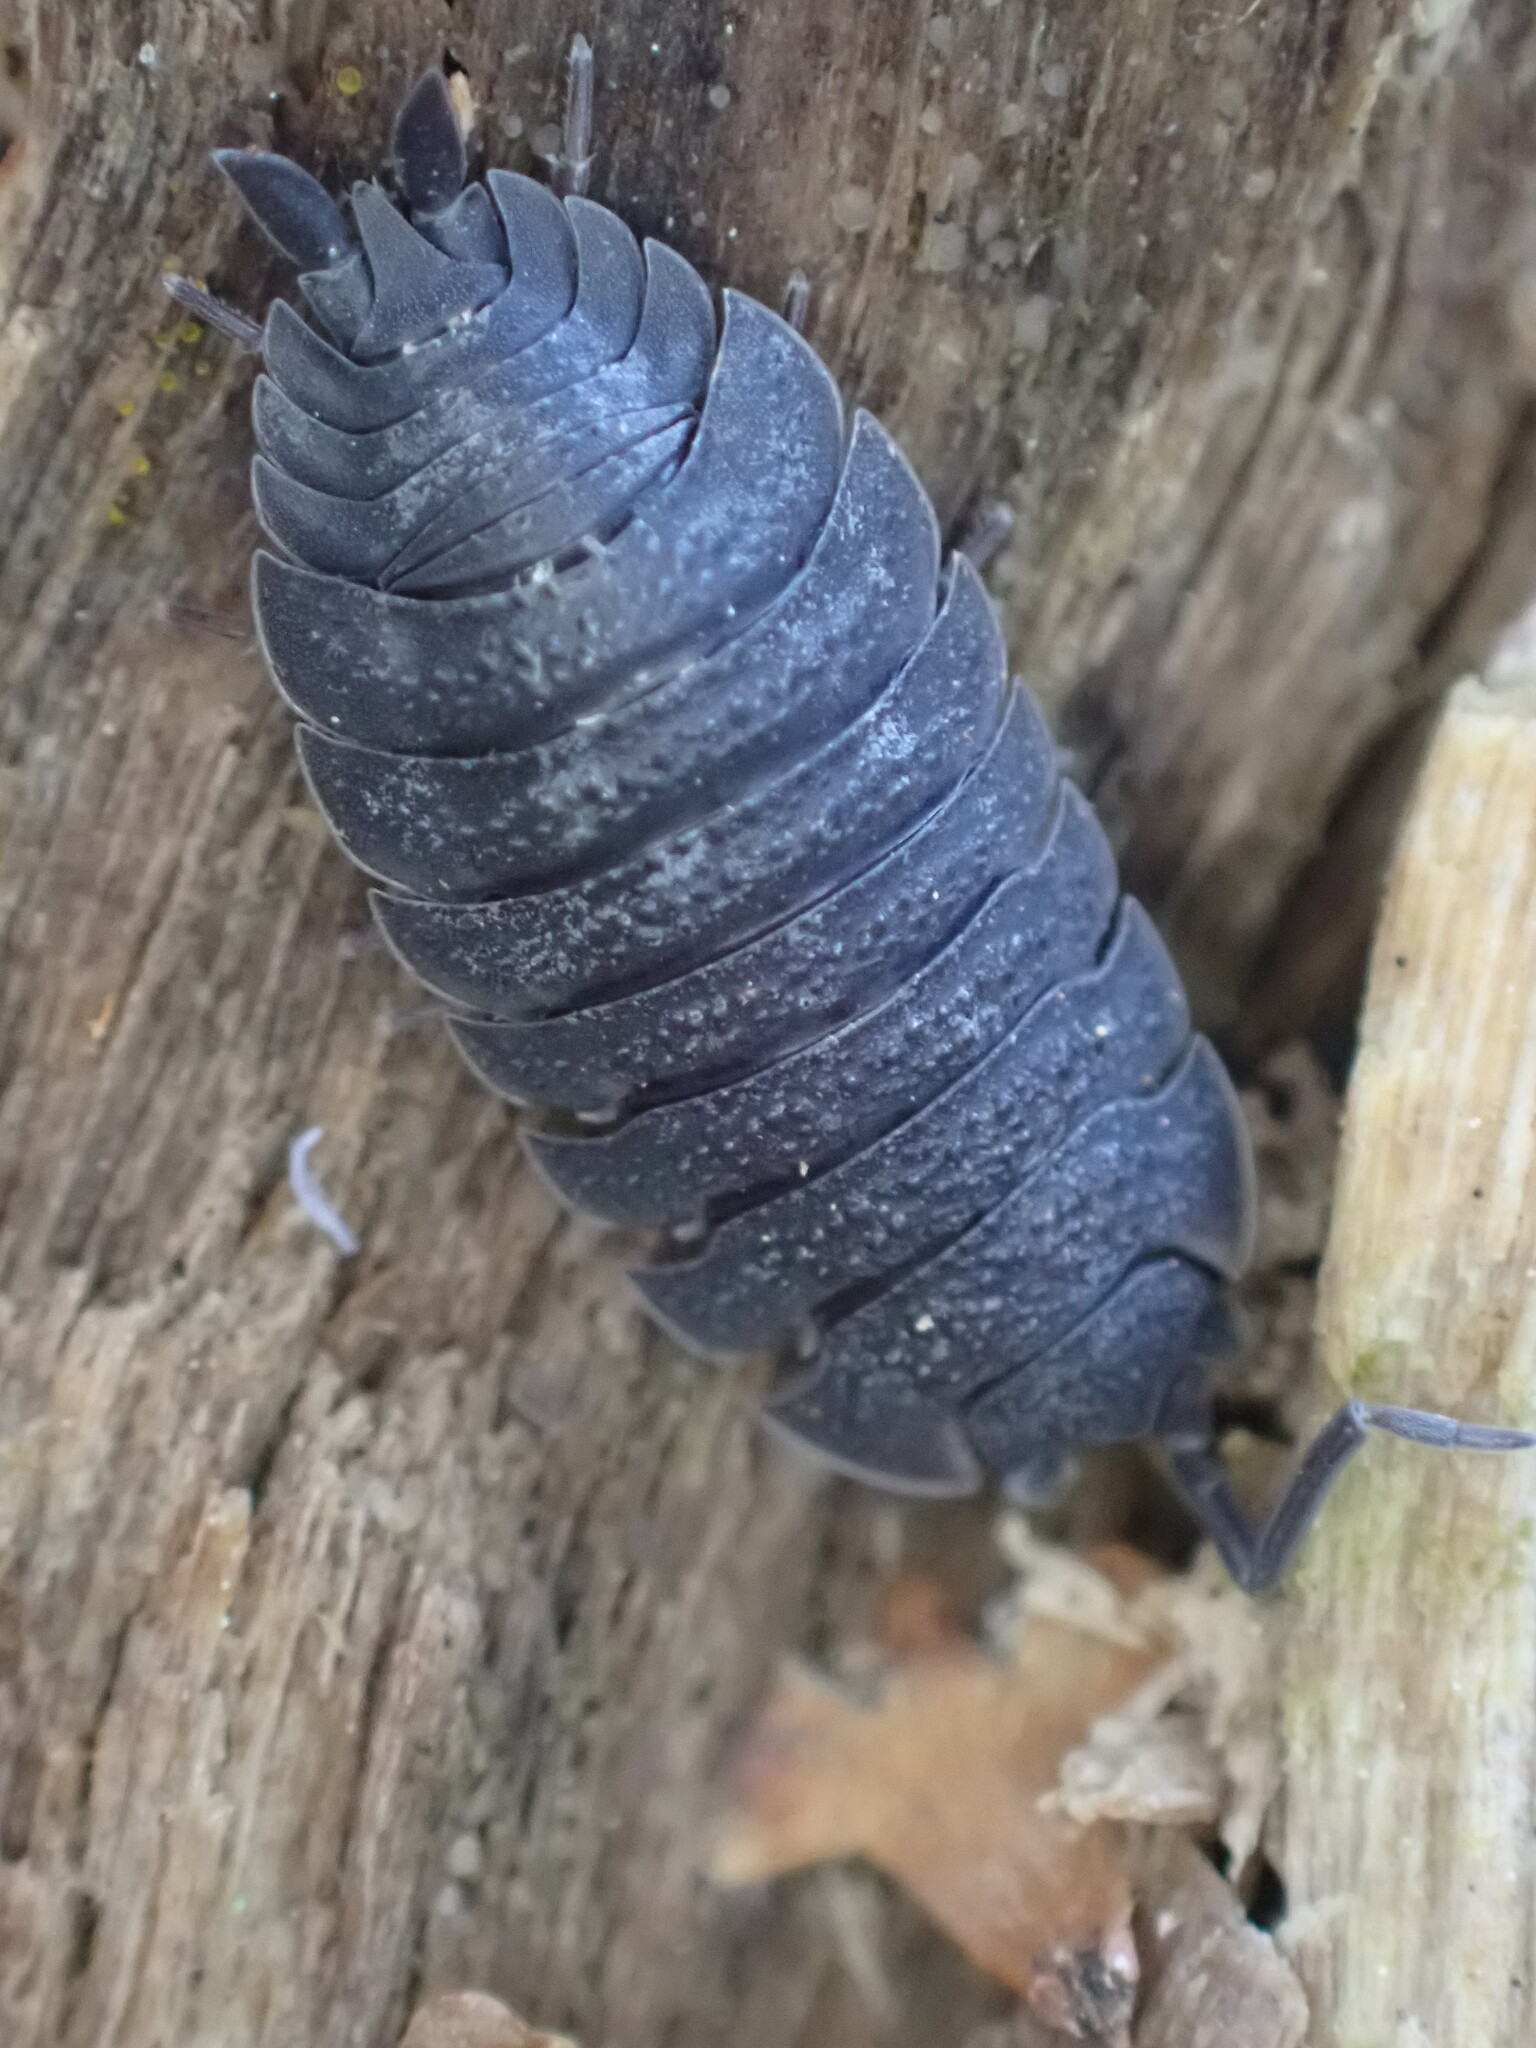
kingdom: Animalia
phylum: Arthropoda
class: Malacostraca
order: Isopoda
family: Porcellionidae
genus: Porcellio
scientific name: Porcellio scaber
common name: Common rough woodlouse
